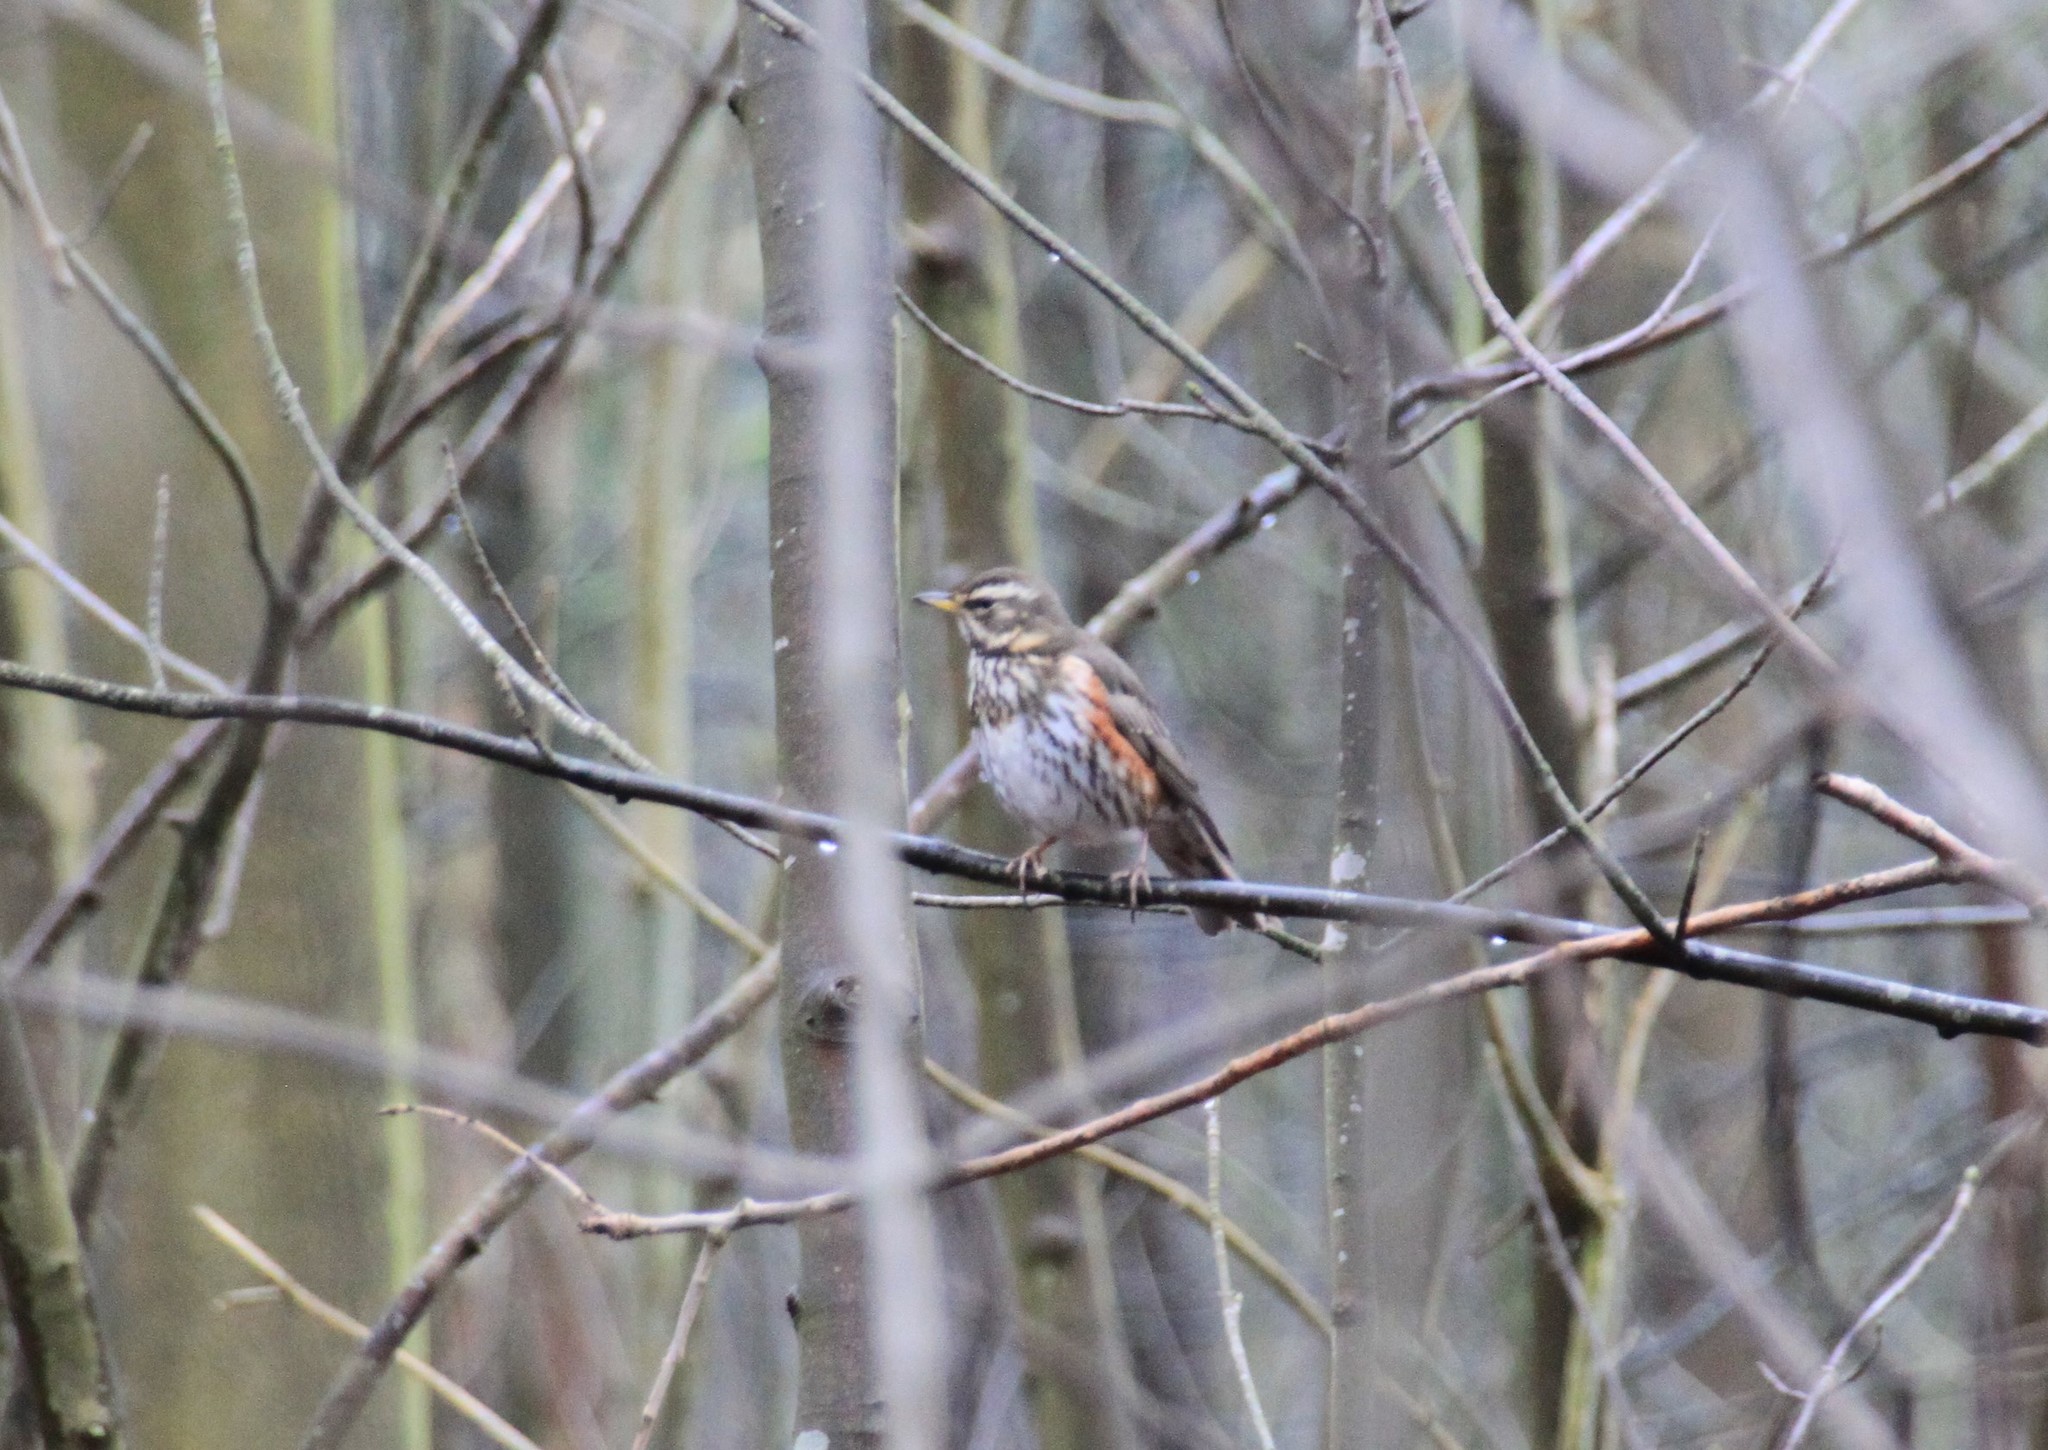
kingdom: Animalia
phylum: Chordata
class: Aves
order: Passeriformes
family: Turdidae
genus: Turdus
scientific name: Turdus iliacus
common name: Redwing
